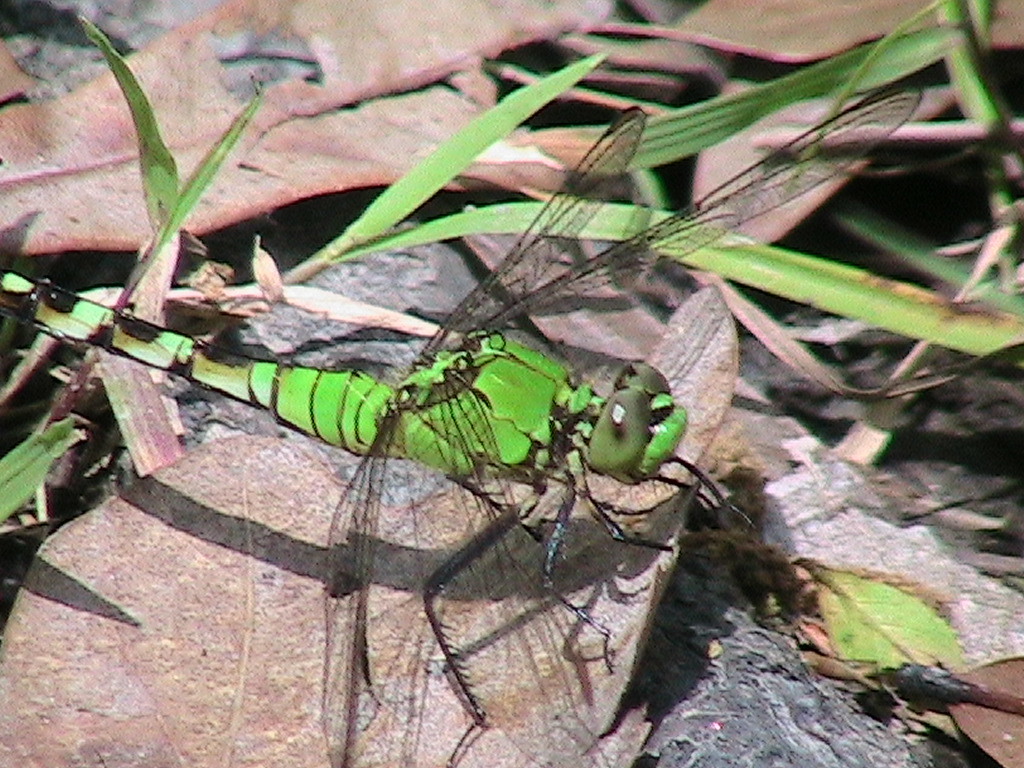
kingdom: Animalia
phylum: Arthropoda
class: Insecta
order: Odonata
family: Libellulidae
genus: Erythemis
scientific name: Erythemis simplicicollis
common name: Eastern pondhawk
